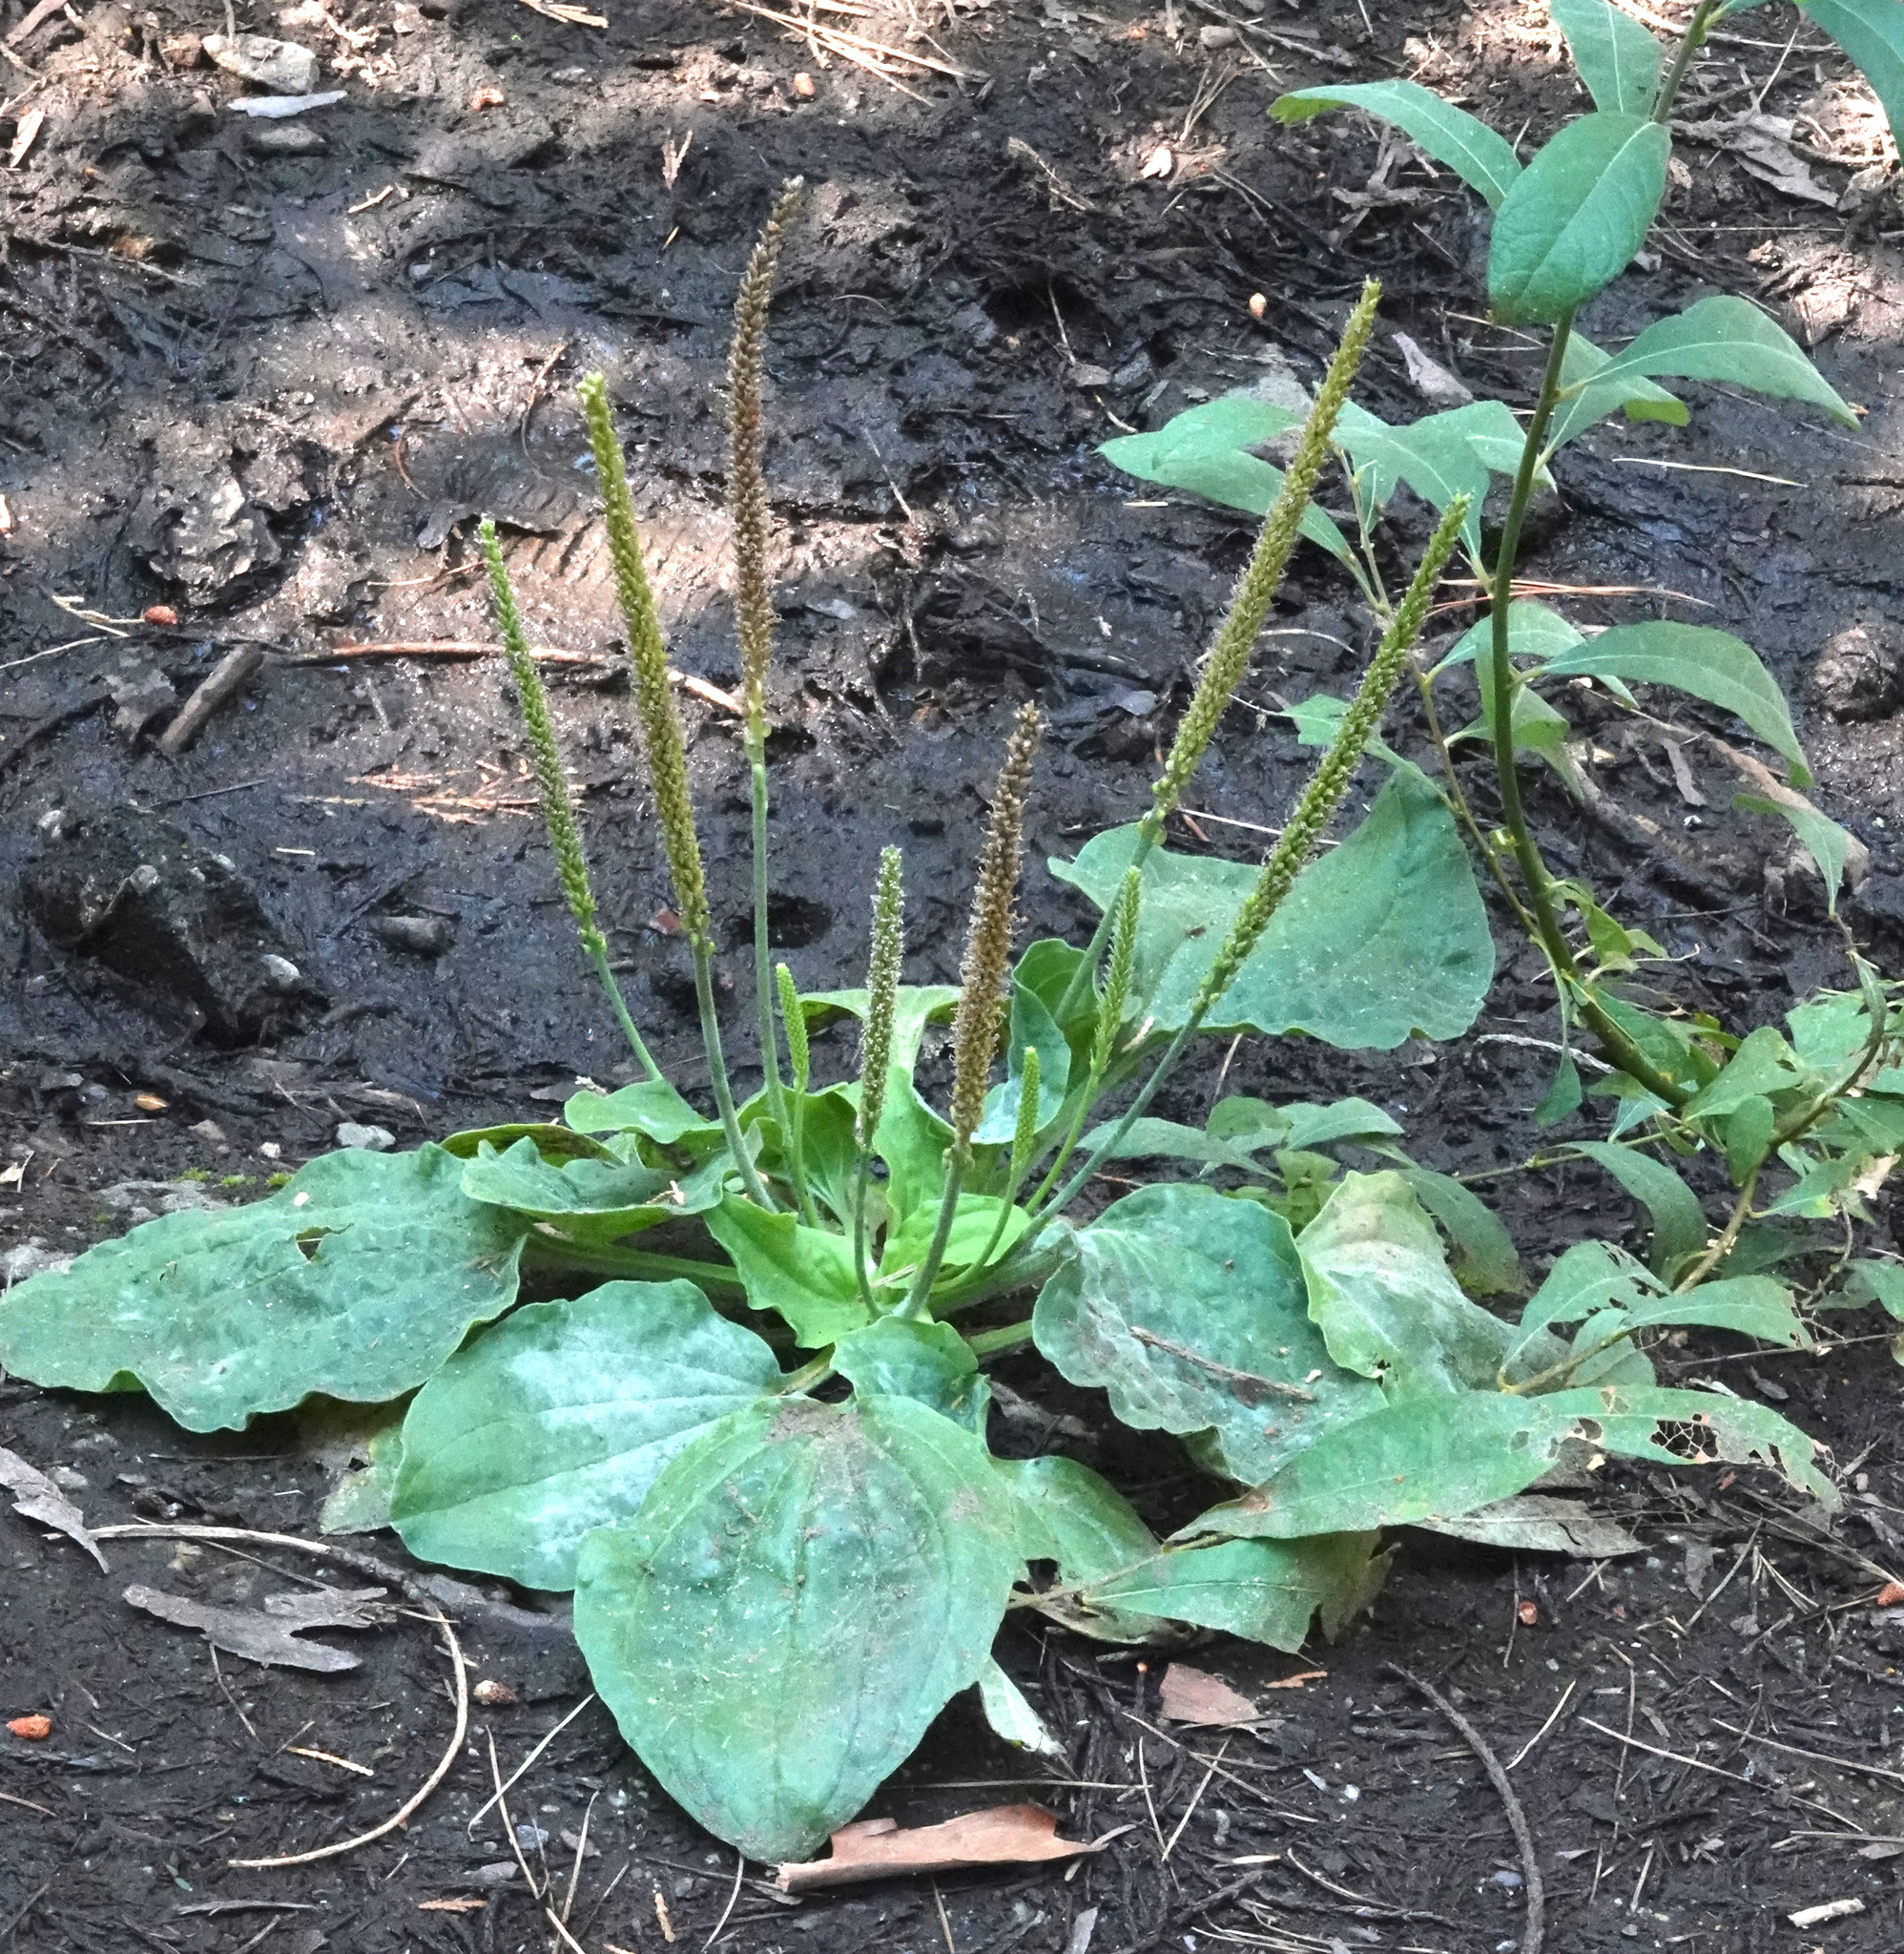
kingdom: Plantae
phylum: Tracheophyta
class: Magnoliopsida
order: Lamiales
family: Plantaginaceae
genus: Plantago
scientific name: Plantago major
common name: Common plantain
